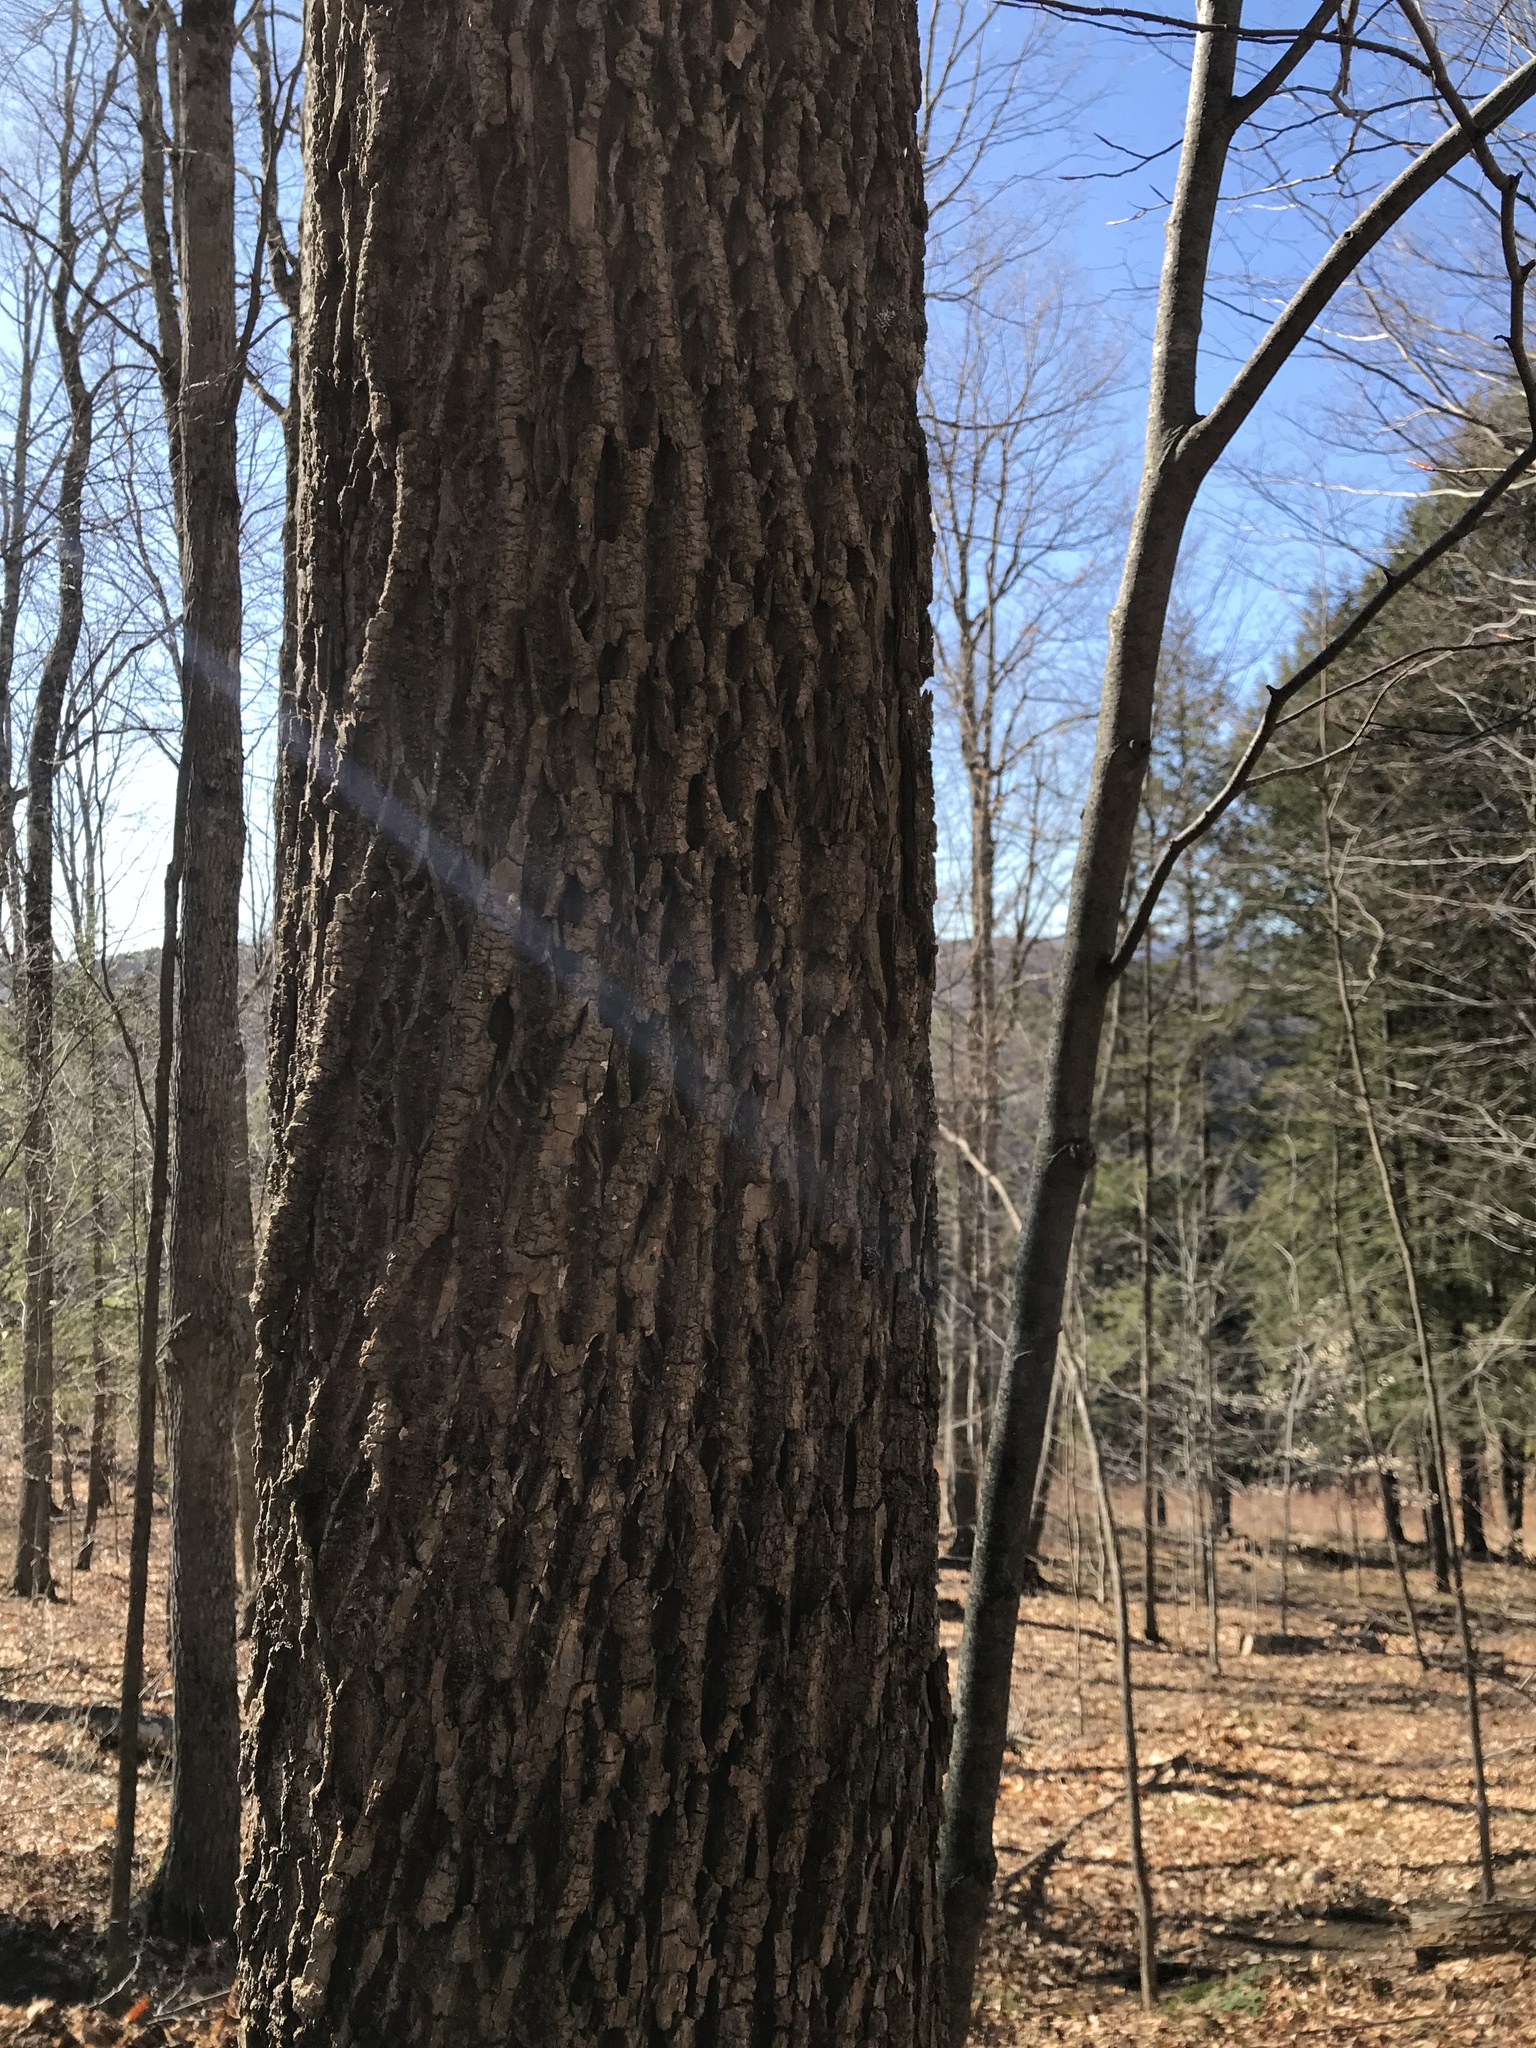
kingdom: Plantae
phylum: Tracheophyta
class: Magnoliopsida
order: Lamiales
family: Oleaceae
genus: Fraxinus
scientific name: Fraxinus americana
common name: White ash
